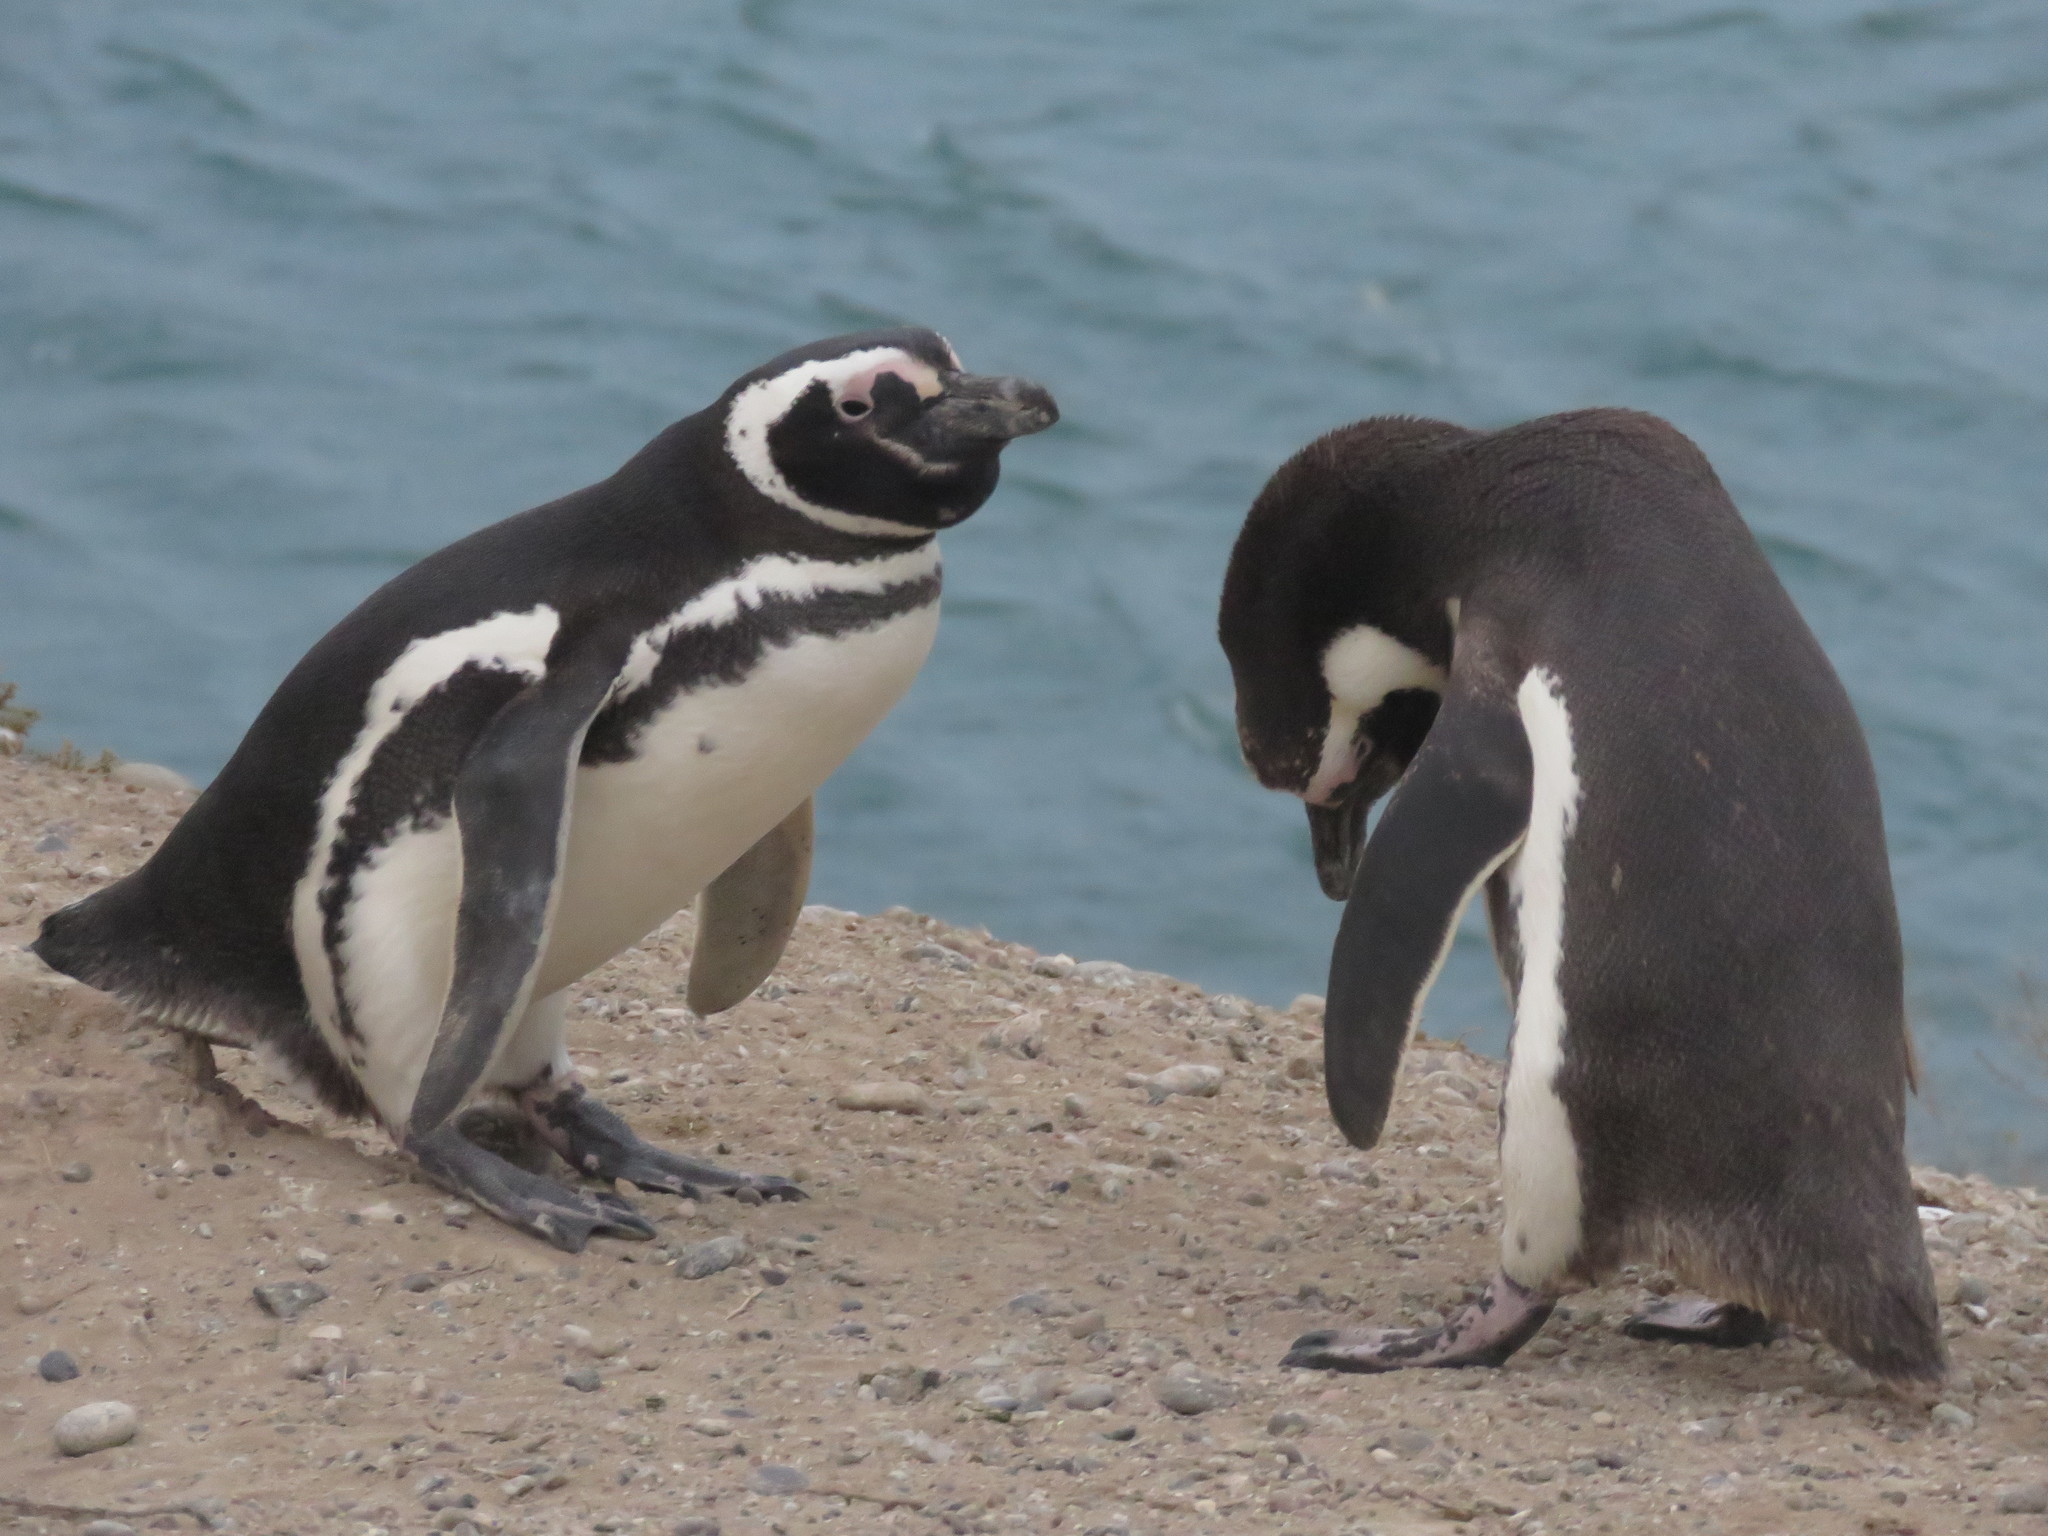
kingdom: Animalia
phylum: Chordata
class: Aves
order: Sphenisciformes
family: Spheniscidae
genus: Spheniscus
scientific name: Spheniscus magellanicus
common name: Magellanic penguin
